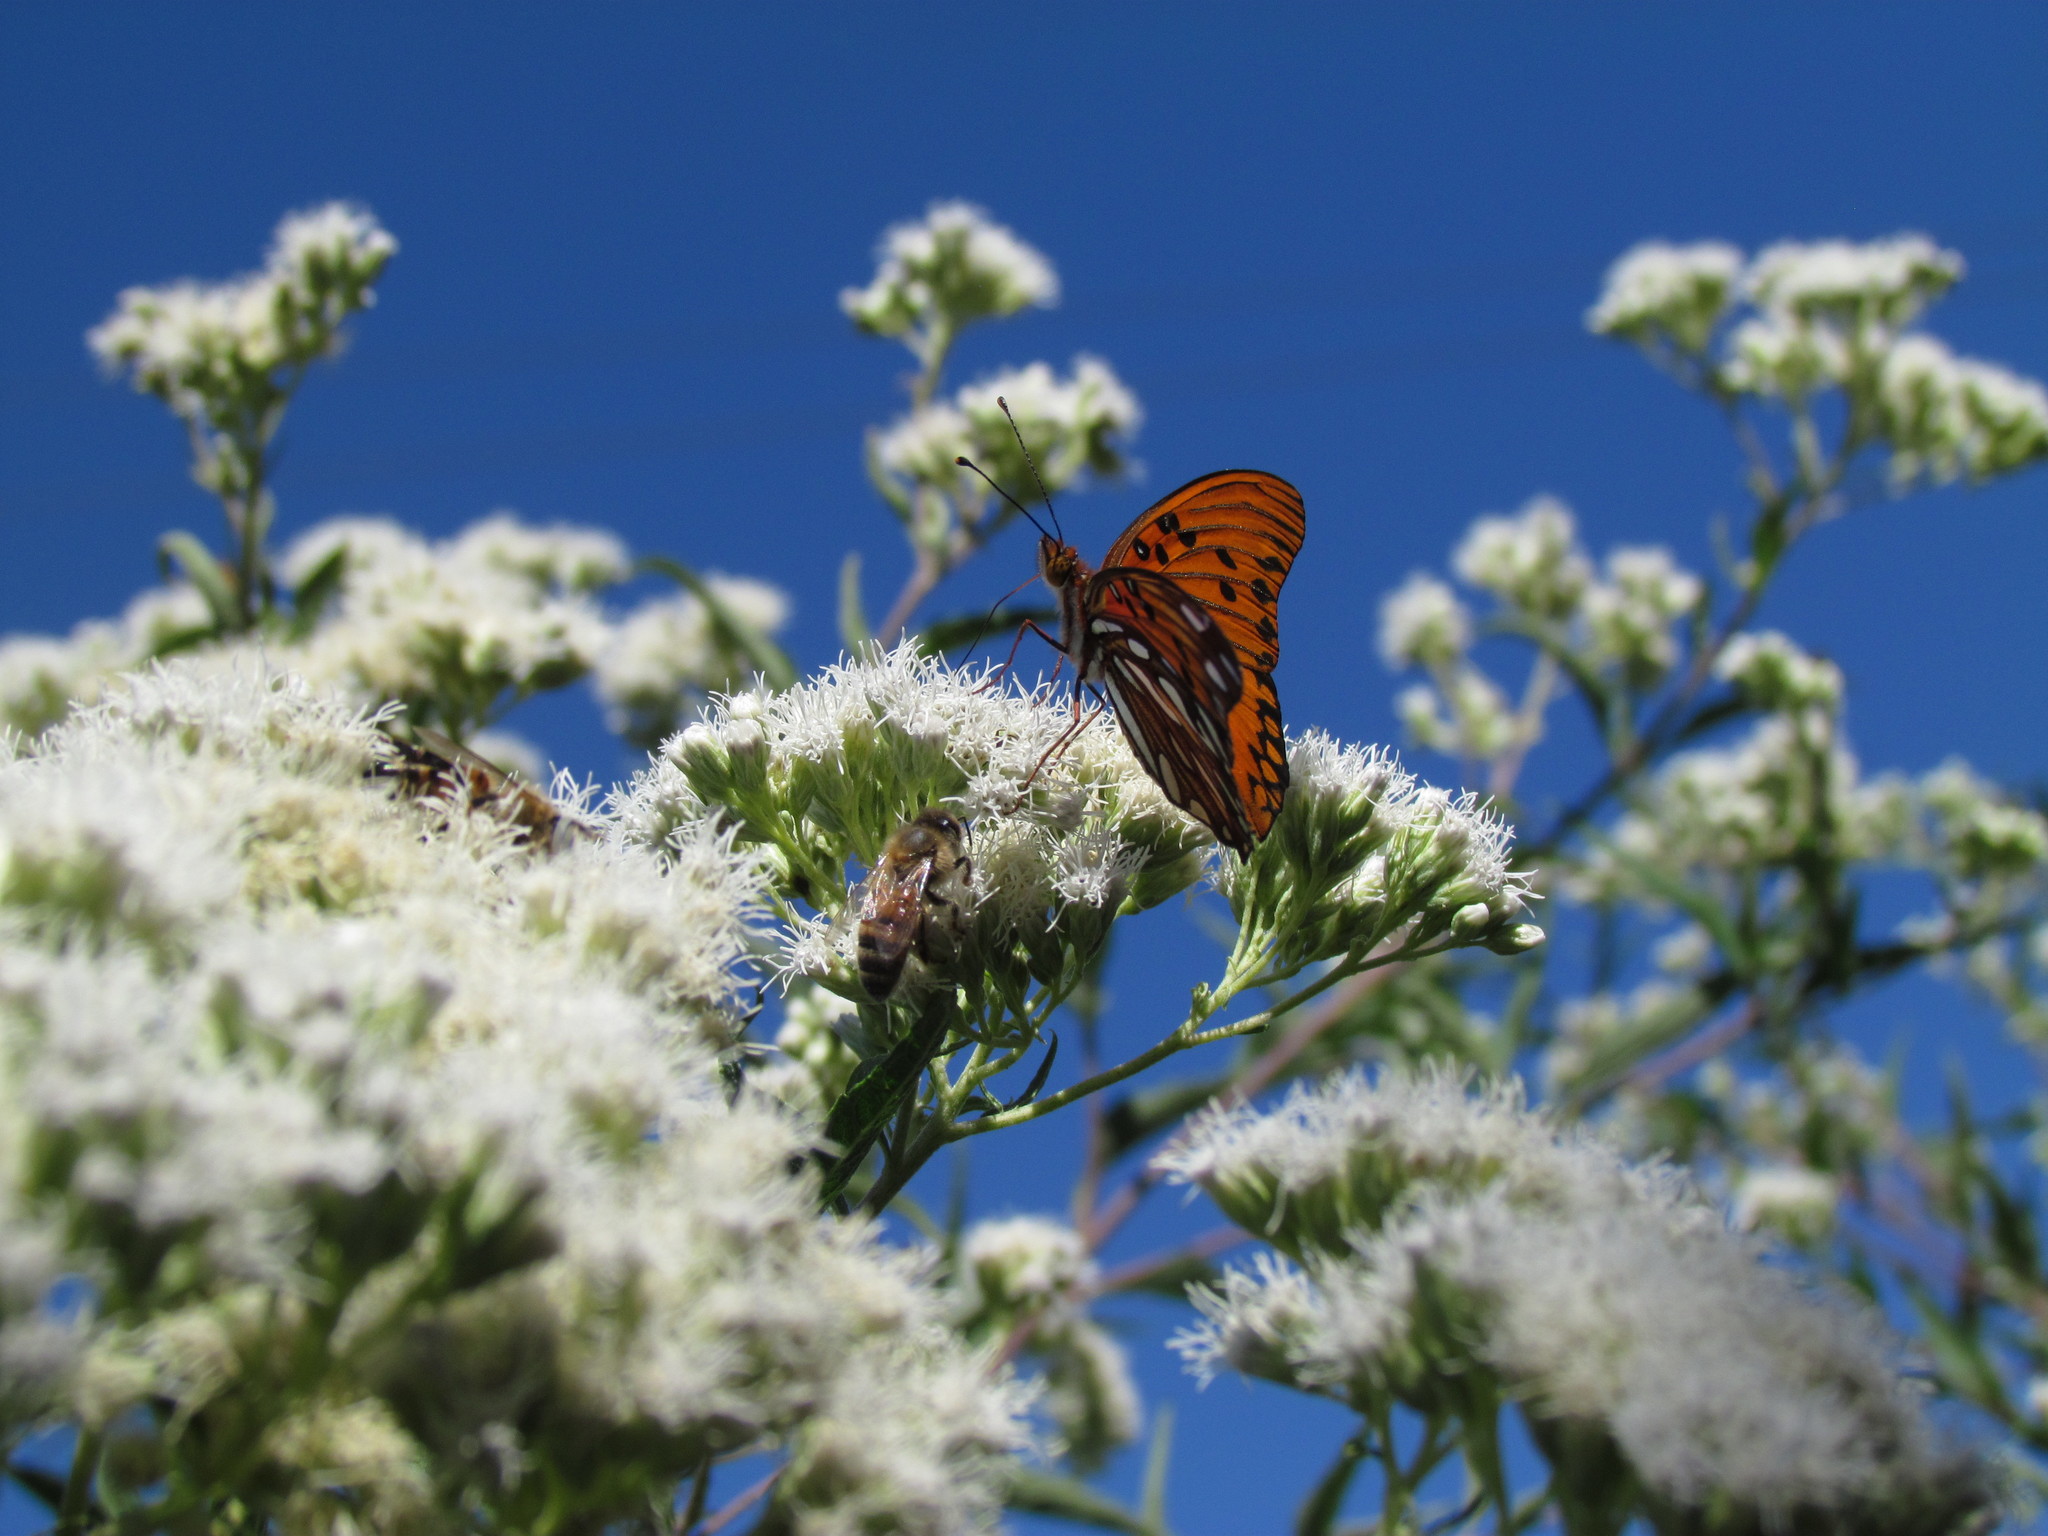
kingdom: Animalia
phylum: Arthropoda
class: Insecta
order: Lepidoptera
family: Nymphalidae
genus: Dione
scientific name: Dione vanillae
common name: Gulf fritillary
